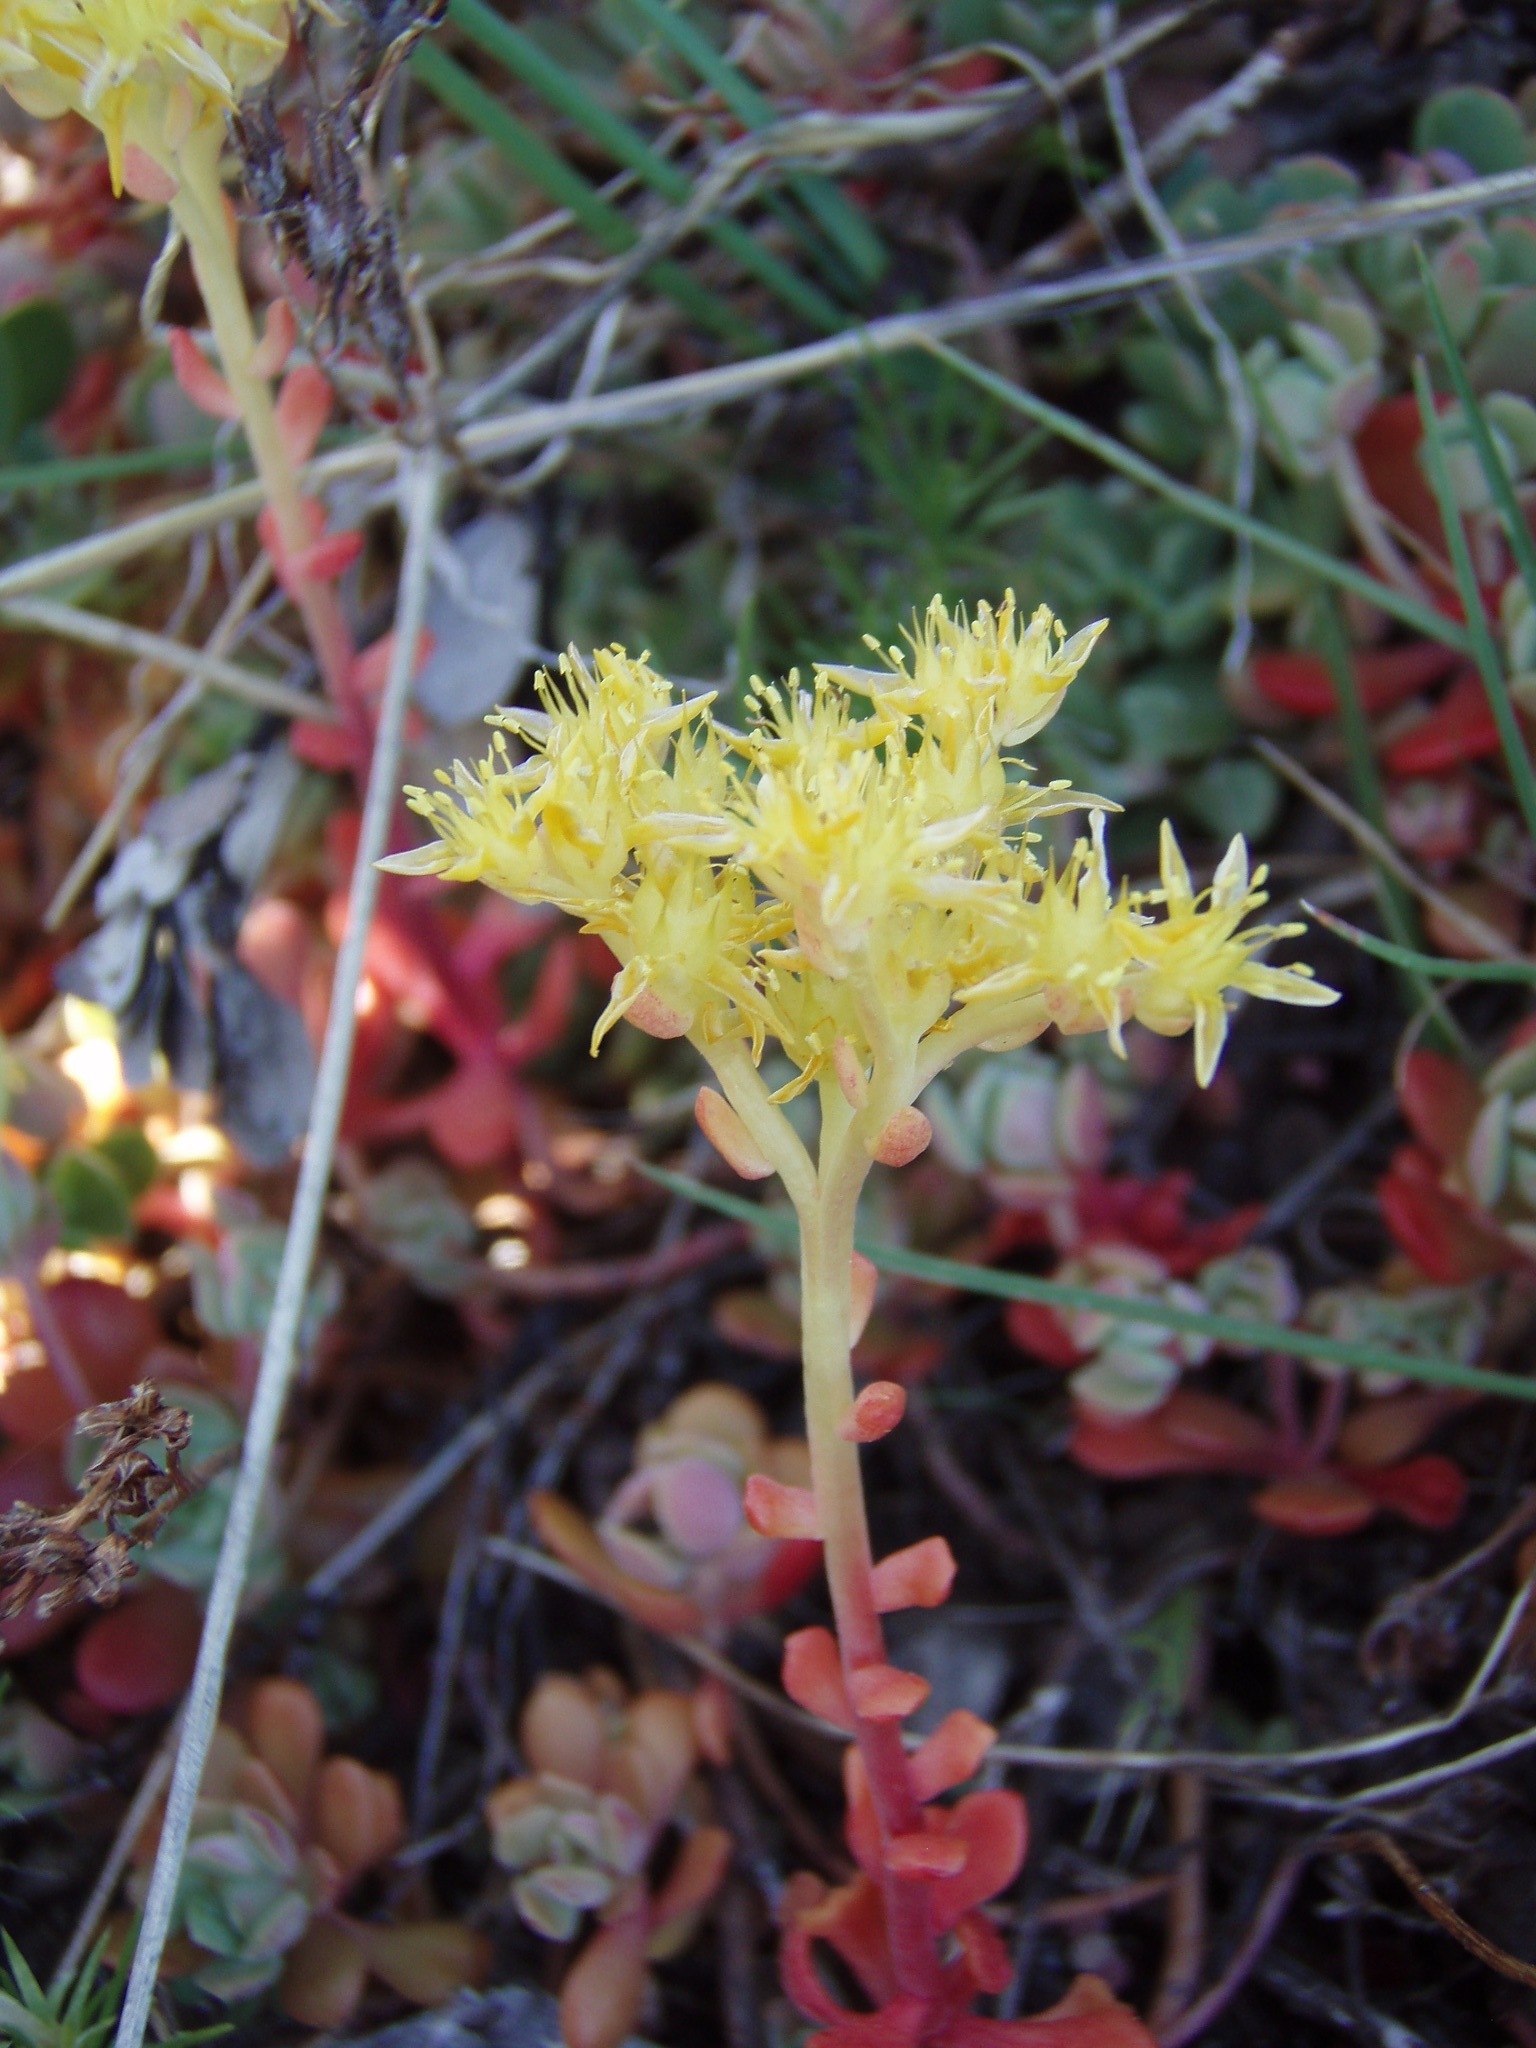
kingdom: Plantae
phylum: Tracheophyta
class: Magnoliopsida
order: Saxifragales
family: Crassulaceae
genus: Sedum
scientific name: Sedum spathulifolium
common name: Colorado stonecrop
